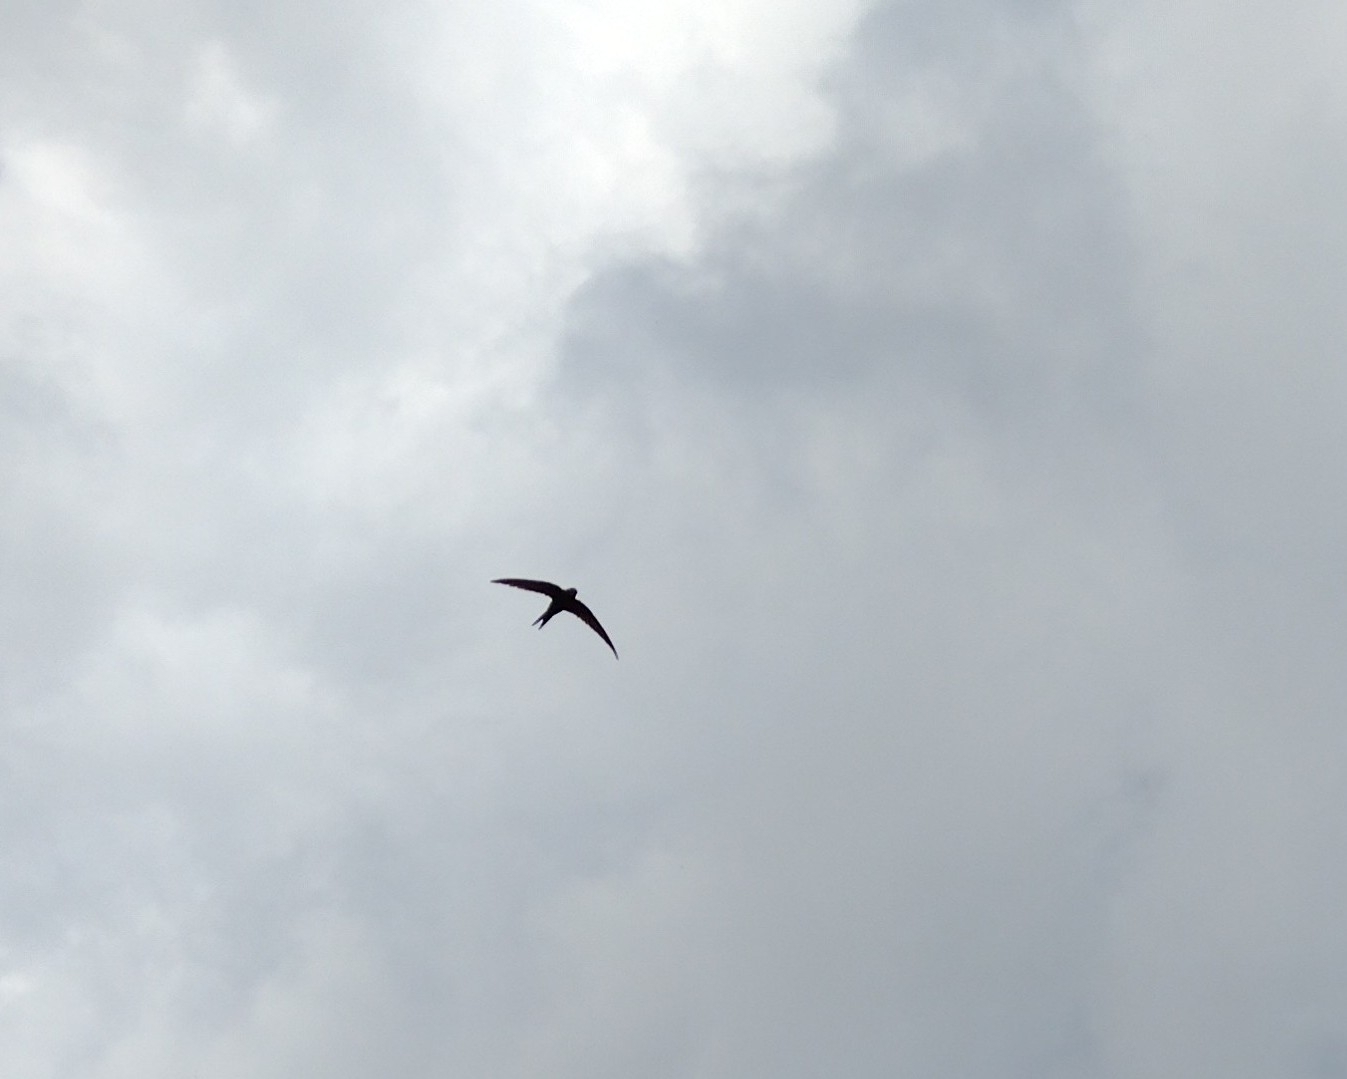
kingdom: Animalia
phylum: Chordata
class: Aves
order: Apodiformes
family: Apodidae
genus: Apus
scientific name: Apus apus
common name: Common swift
